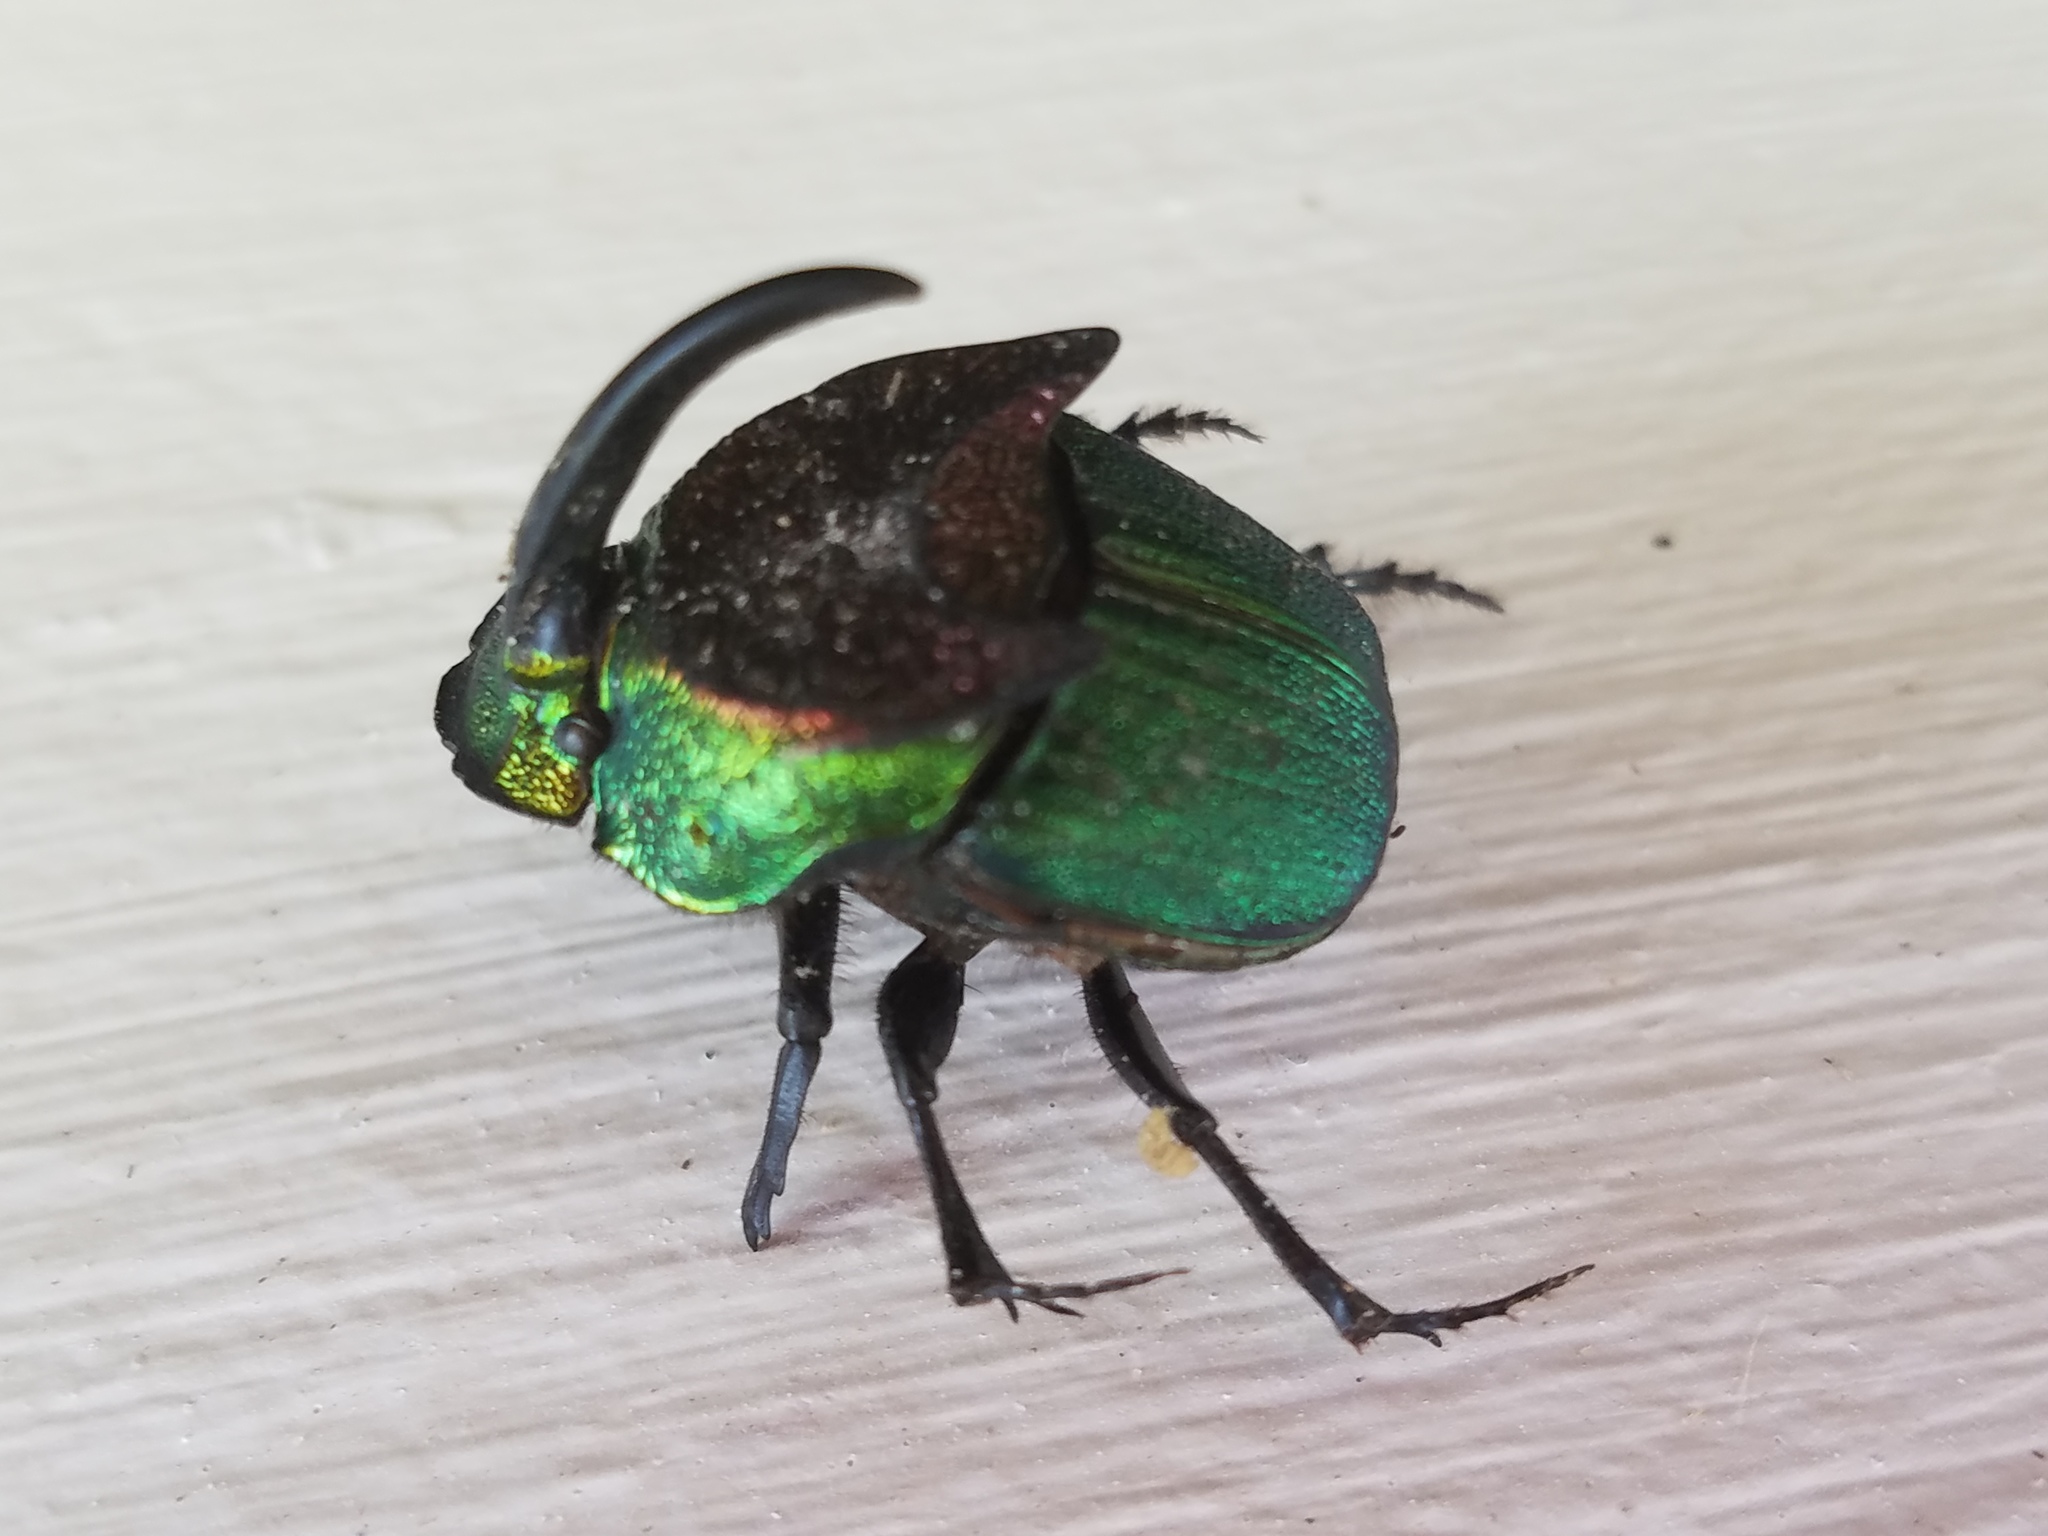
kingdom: Animalia
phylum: Arthropoda
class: Insecta
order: Coleoptera
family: Scarabaeidae
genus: Phanaeus
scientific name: Phanaeus vindex
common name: Rainbow scarab
